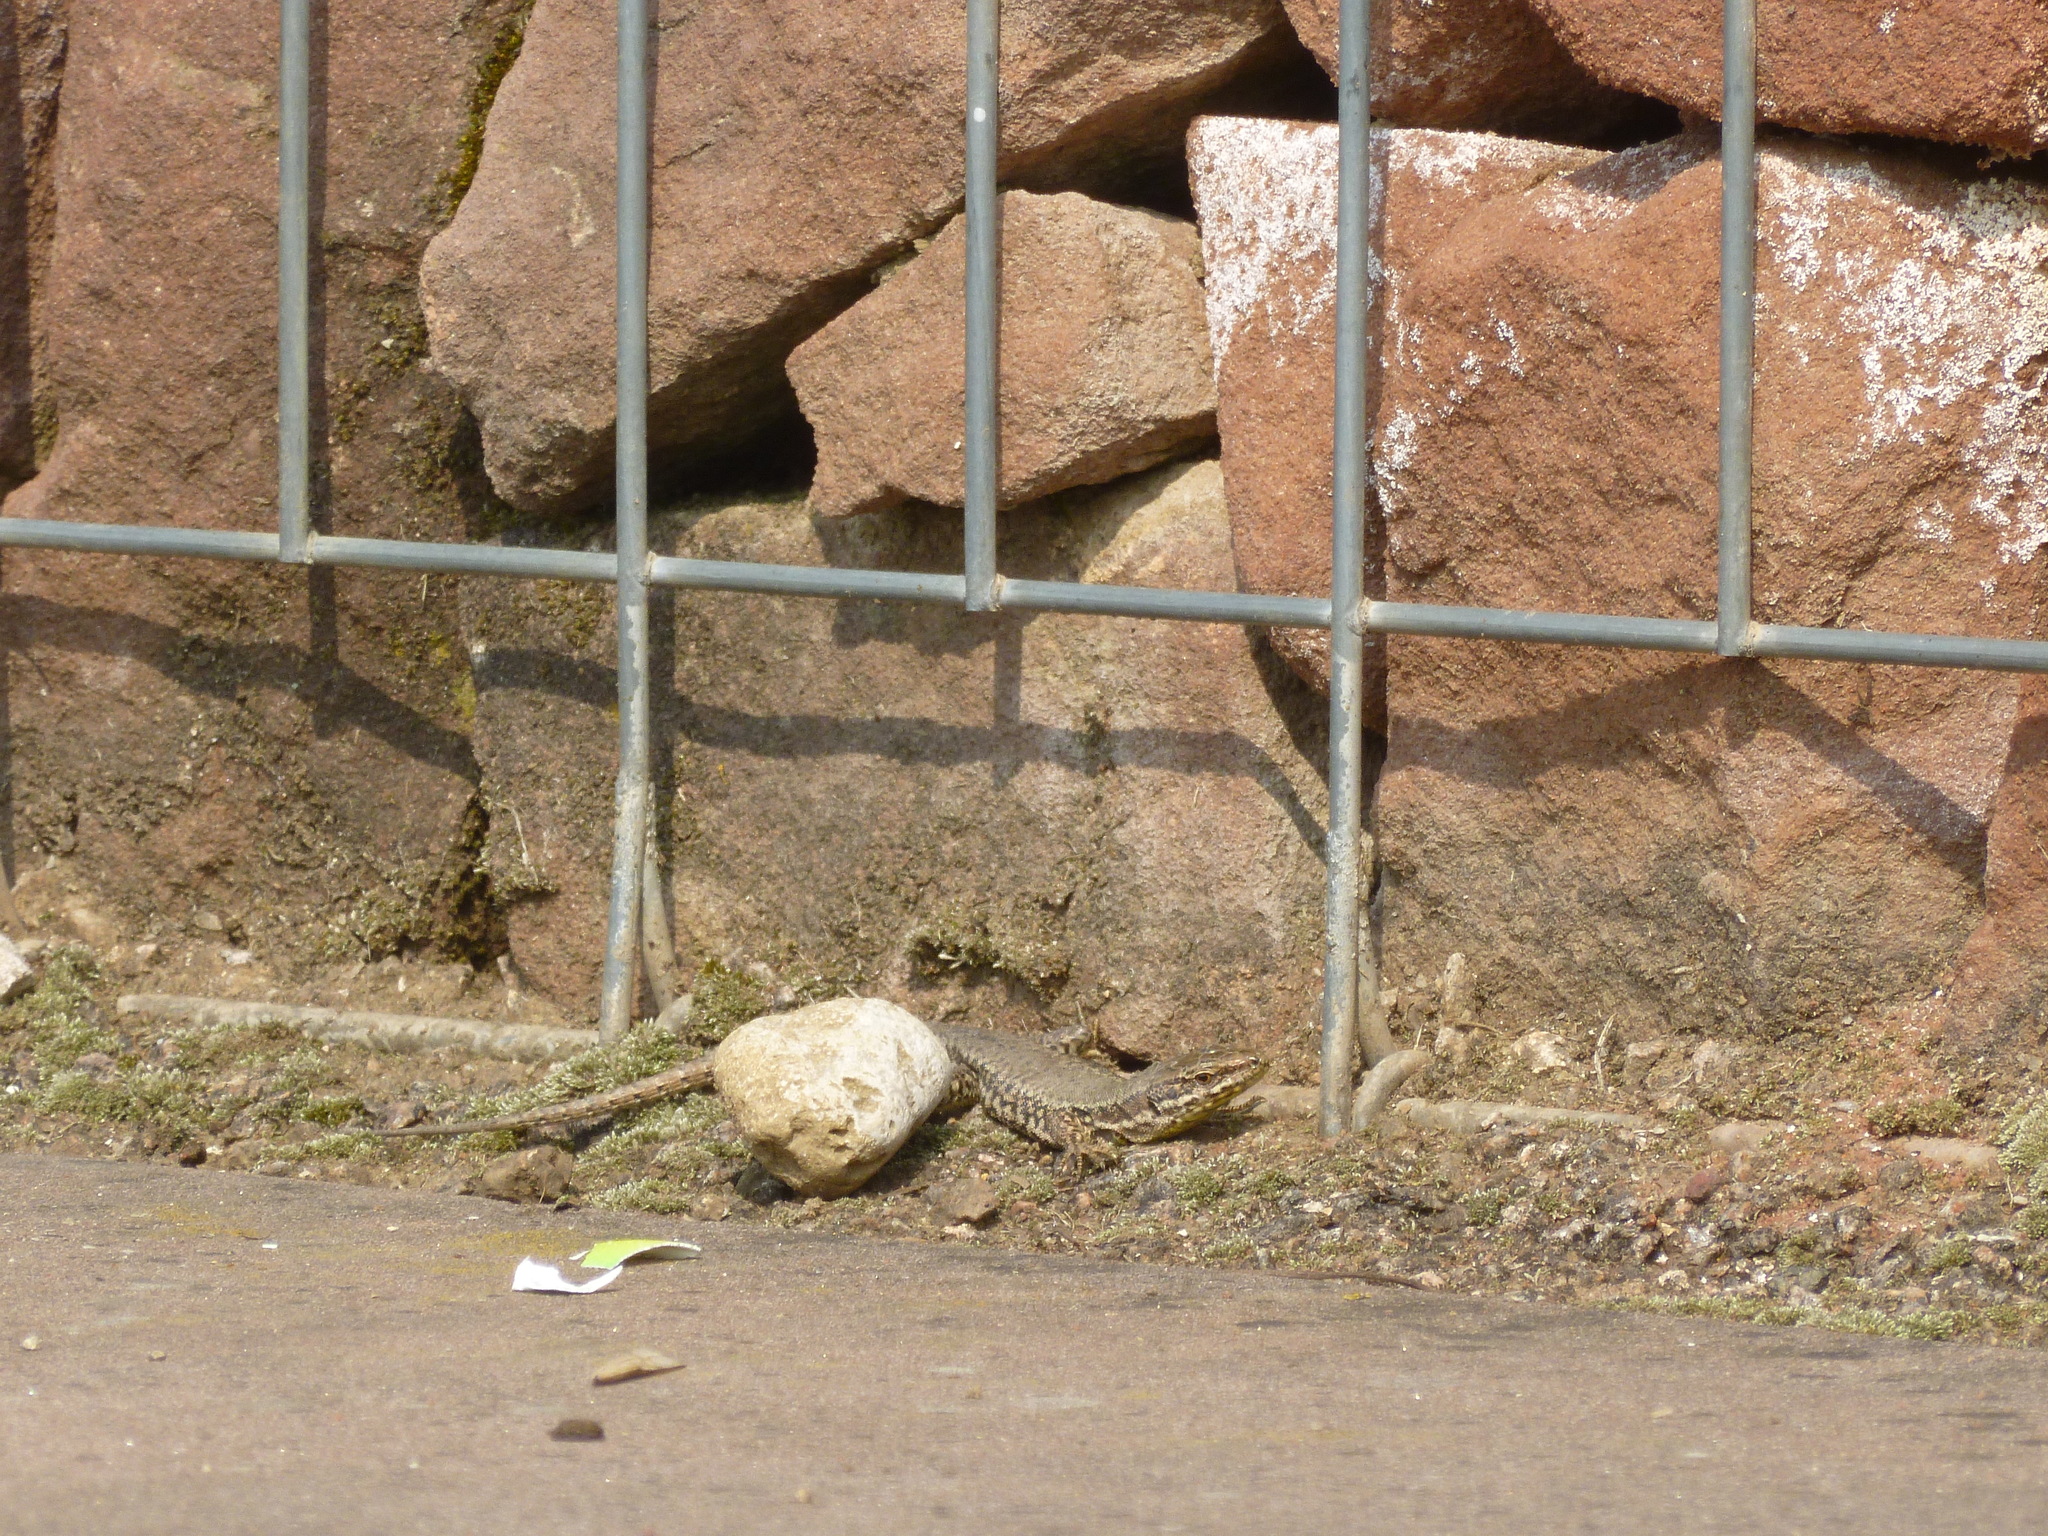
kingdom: Animalia
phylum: Chordata
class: Squamata
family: Lacertidae
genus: Podarcis
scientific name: Podarcis muralis
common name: Common wall lizard
